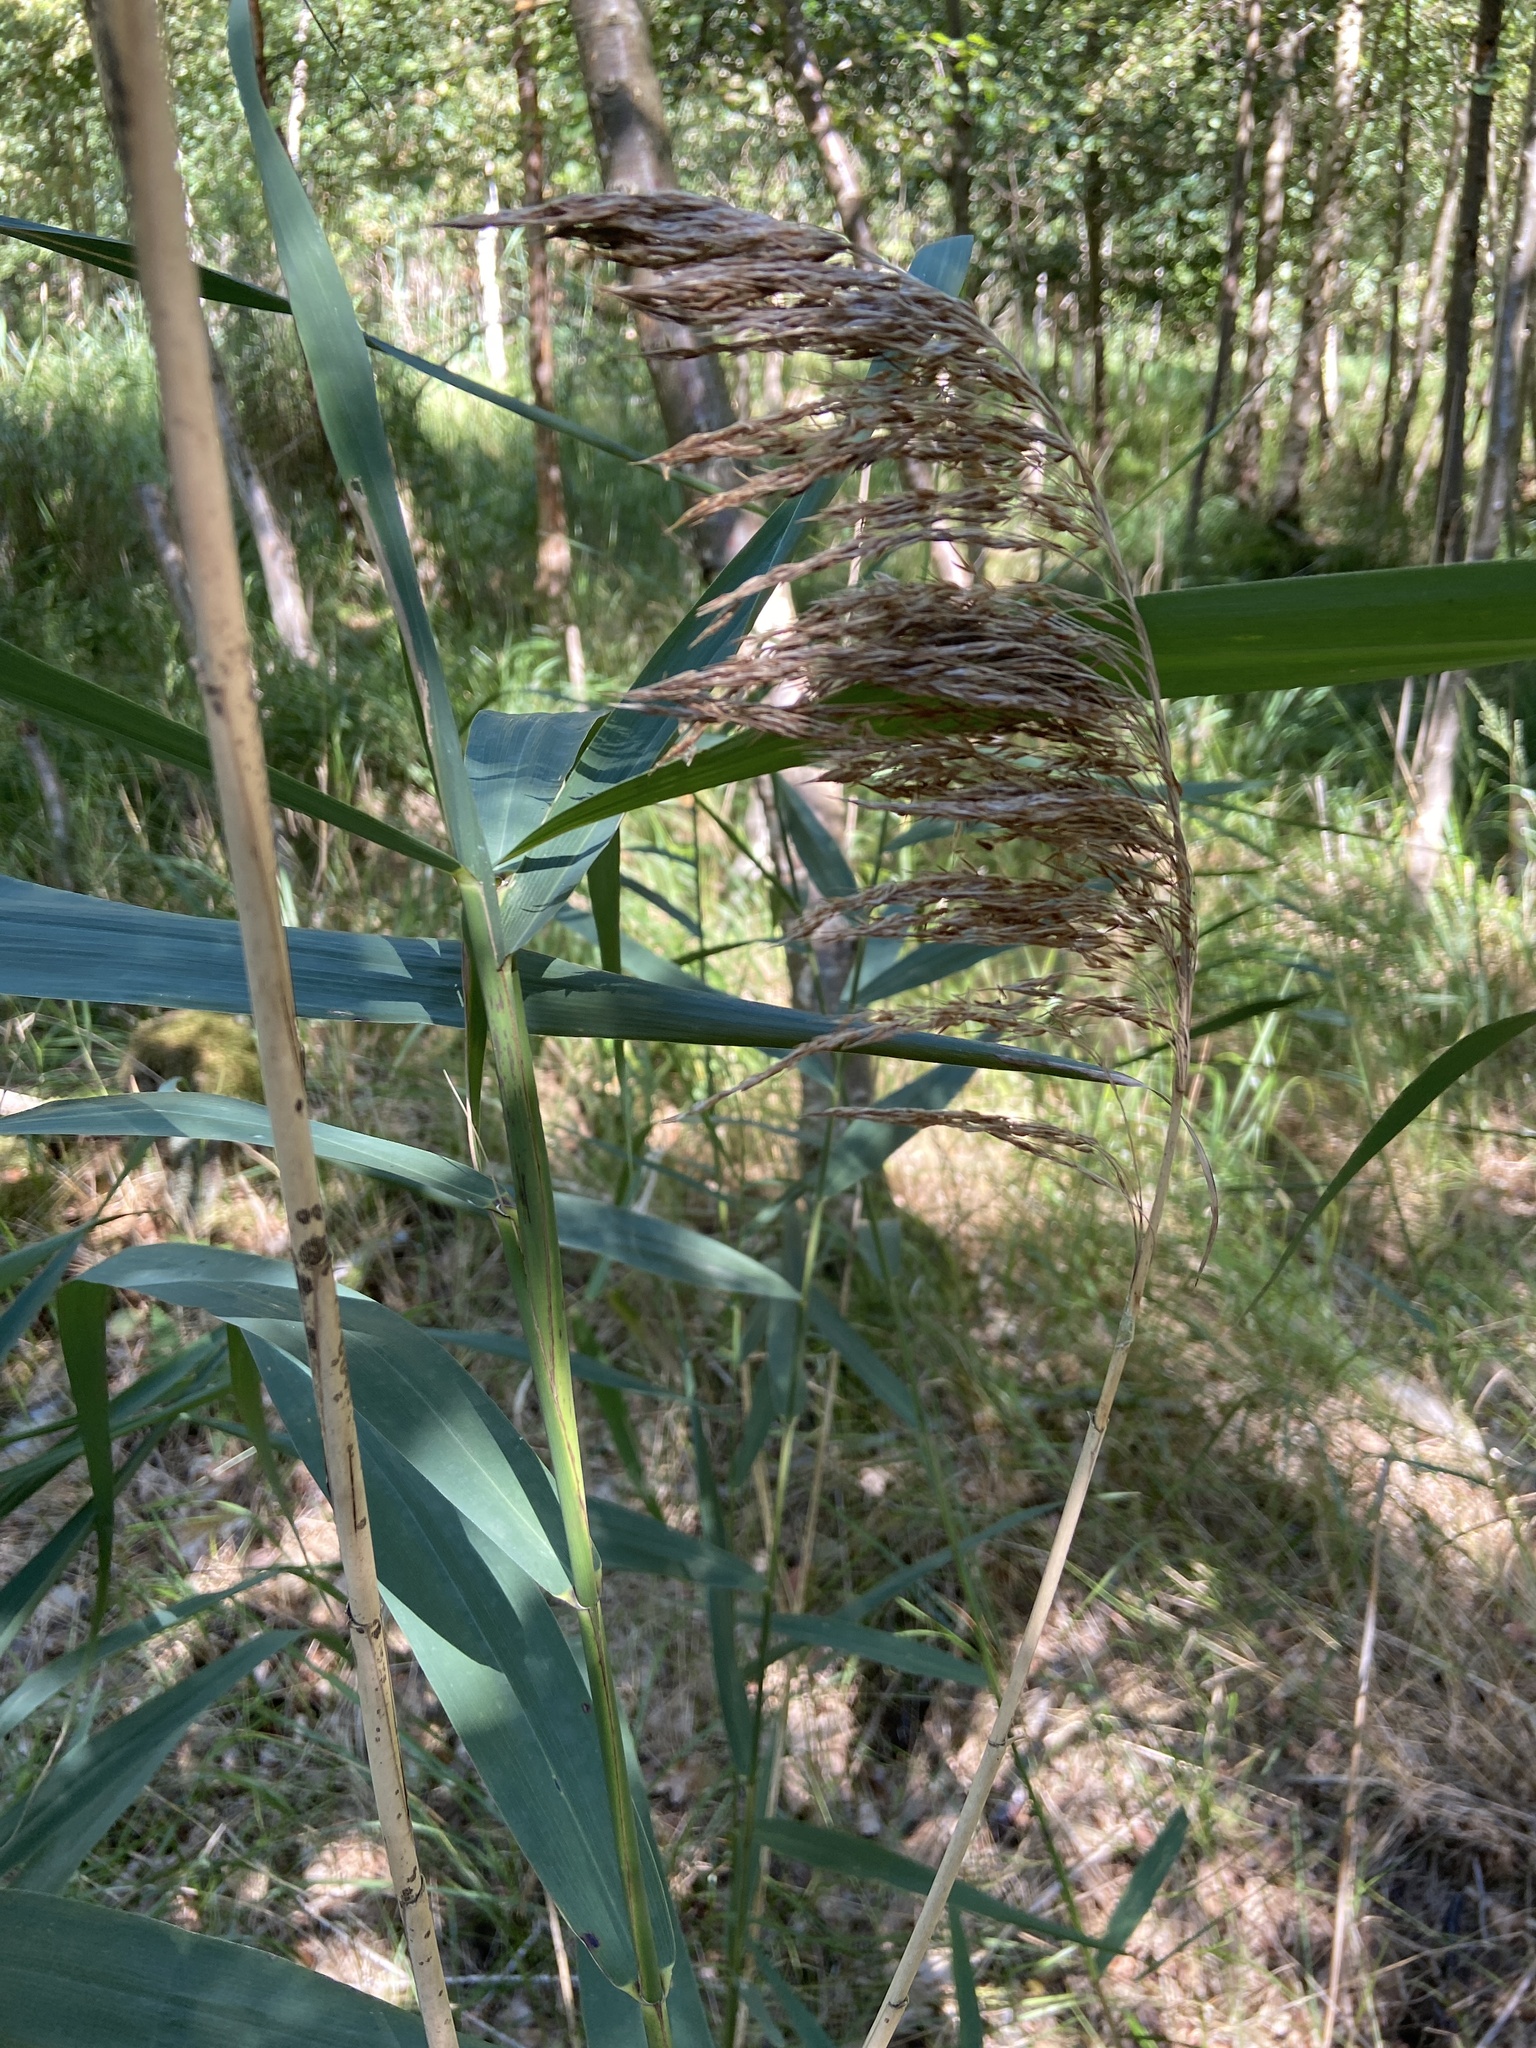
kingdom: Plantae
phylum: Tracheophyta
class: Liliopsida
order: Poales
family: Poaceae
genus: Phragmites
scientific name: Phragmites australis
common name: Common reed
